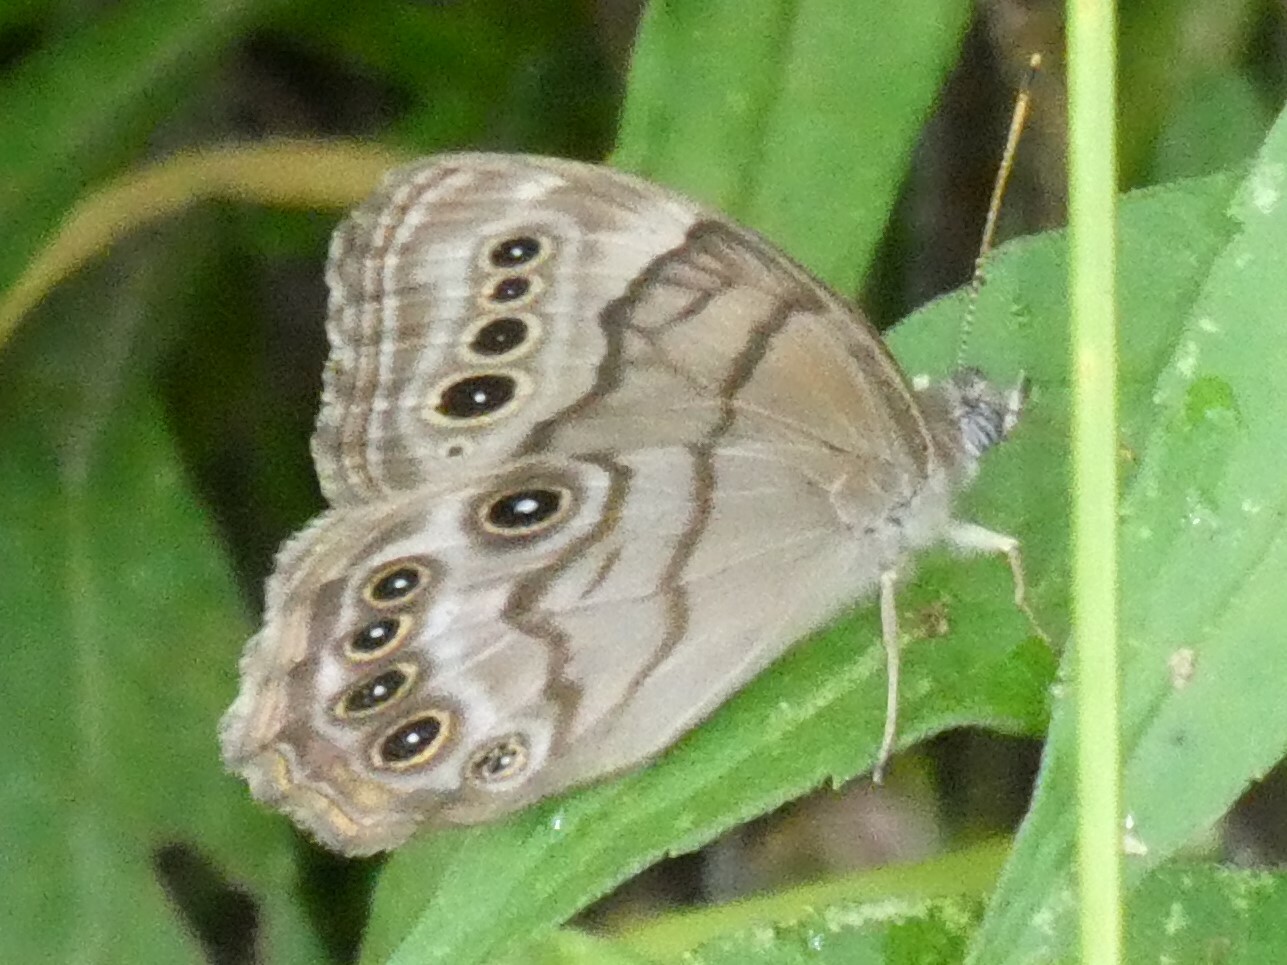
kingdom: Animalia
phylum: Arthropoda
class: Insecta
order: Lepidoptera
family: Nymphalidae
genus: Lethe
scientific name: Lethe anthedon
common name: Northern pearly-eye
